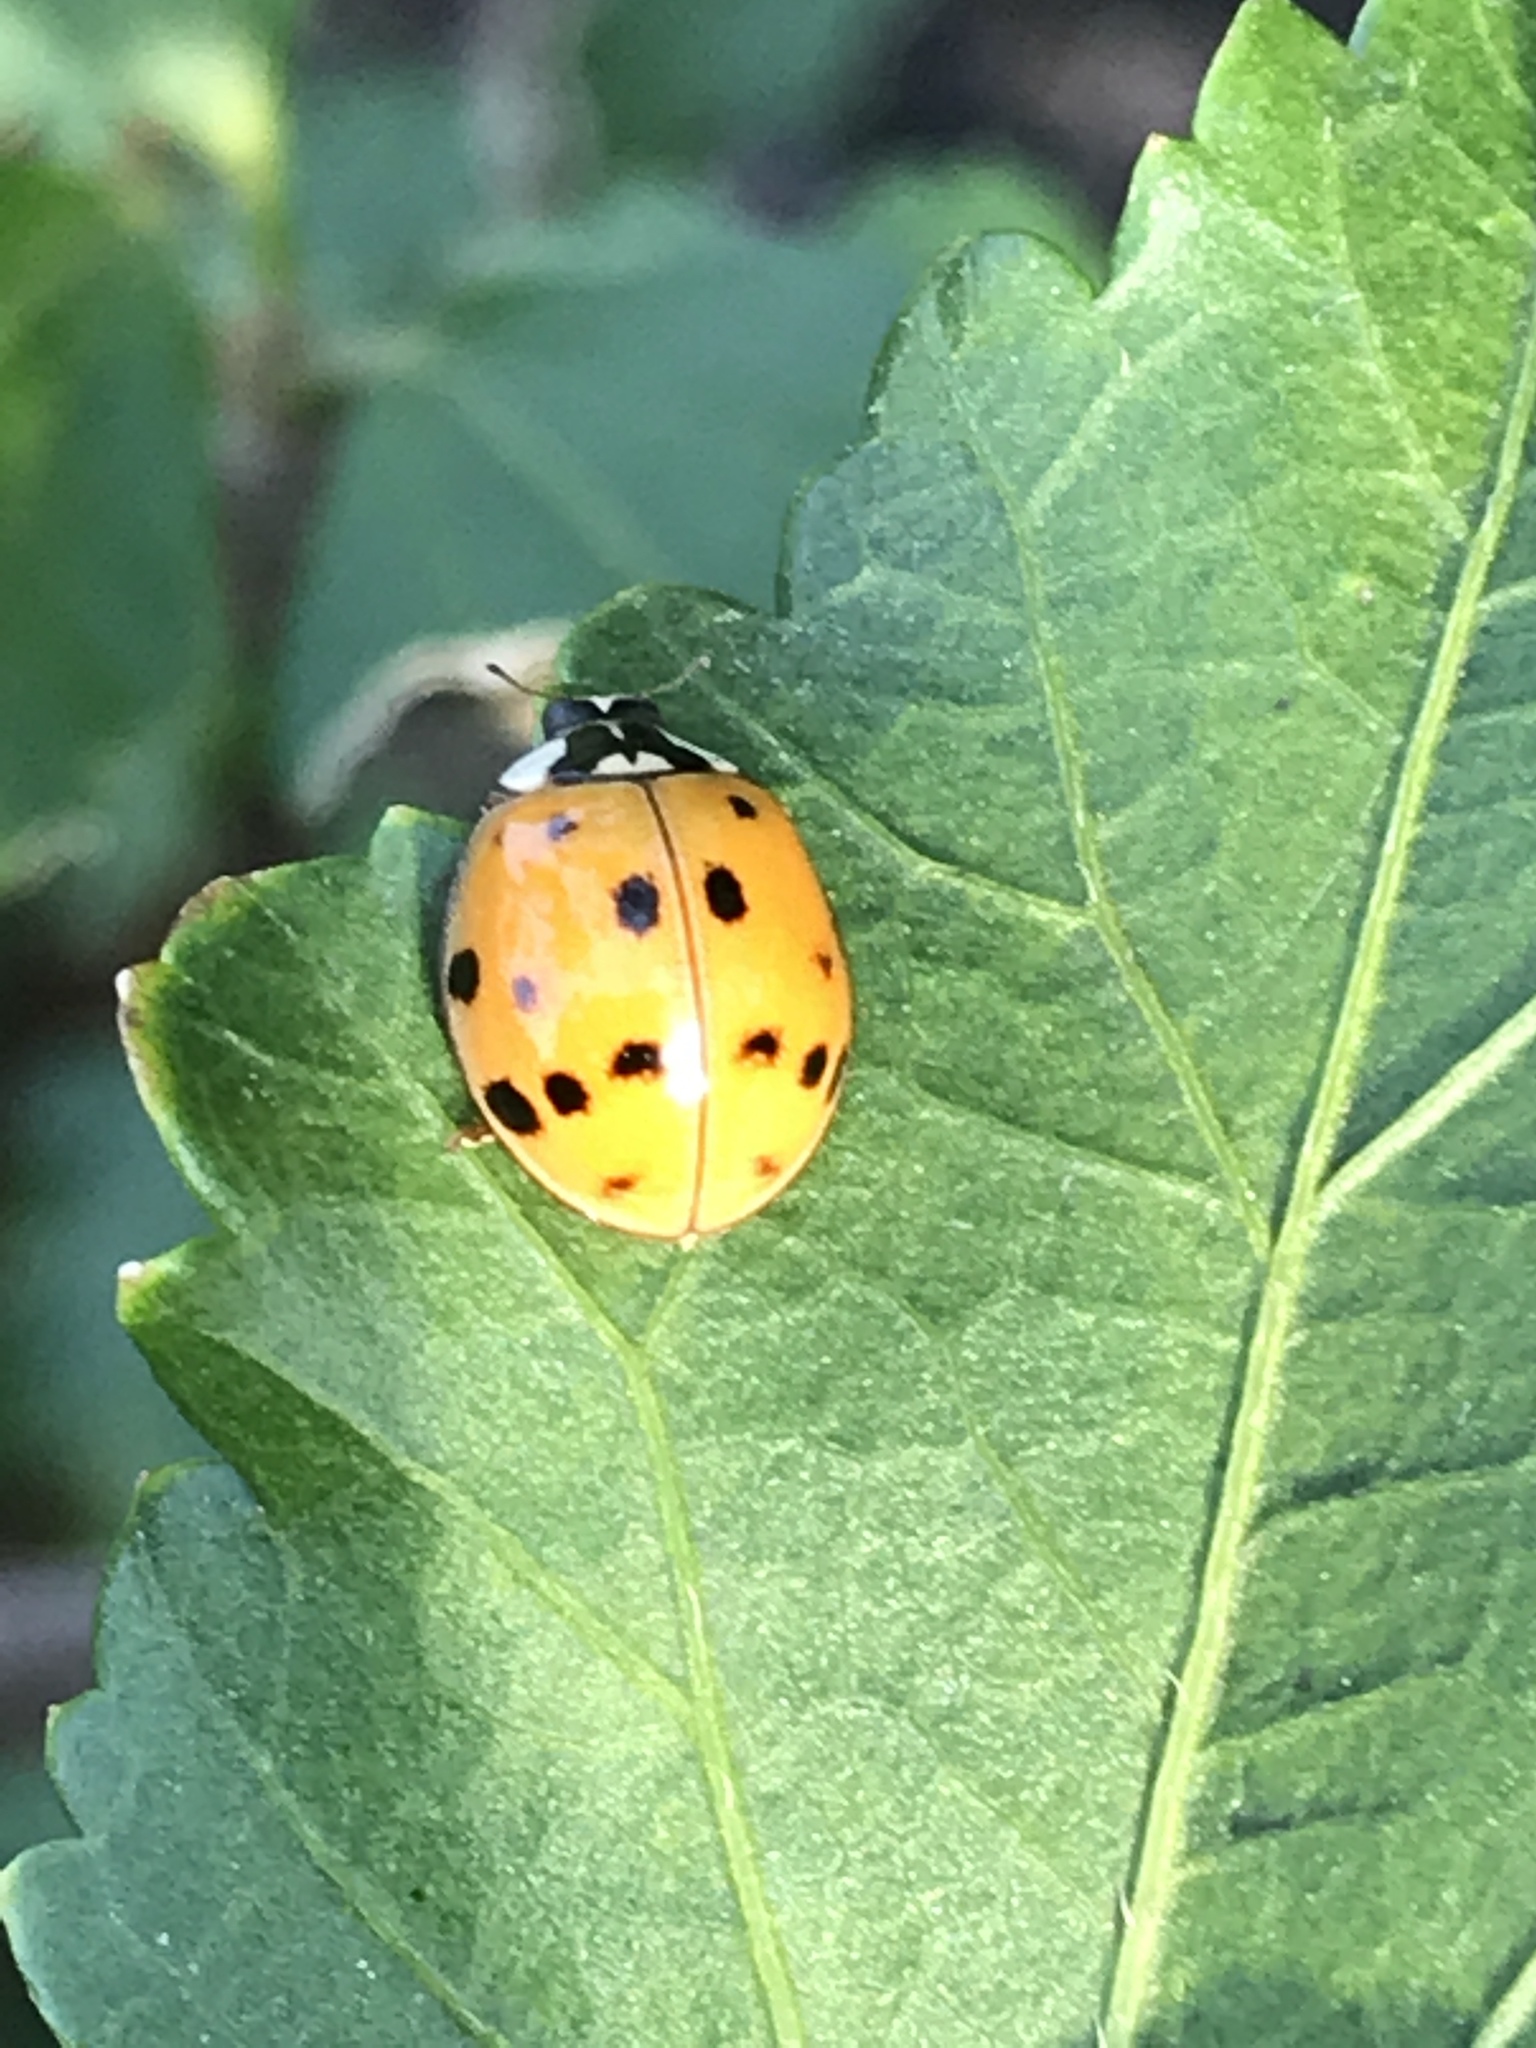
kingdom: Animalia
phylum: Arthropoda
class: Insecta
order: Coleoptera
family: Coccinellidae
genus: Harmonia
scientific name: Harmonia axyridis
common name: Harlequin ladybird
